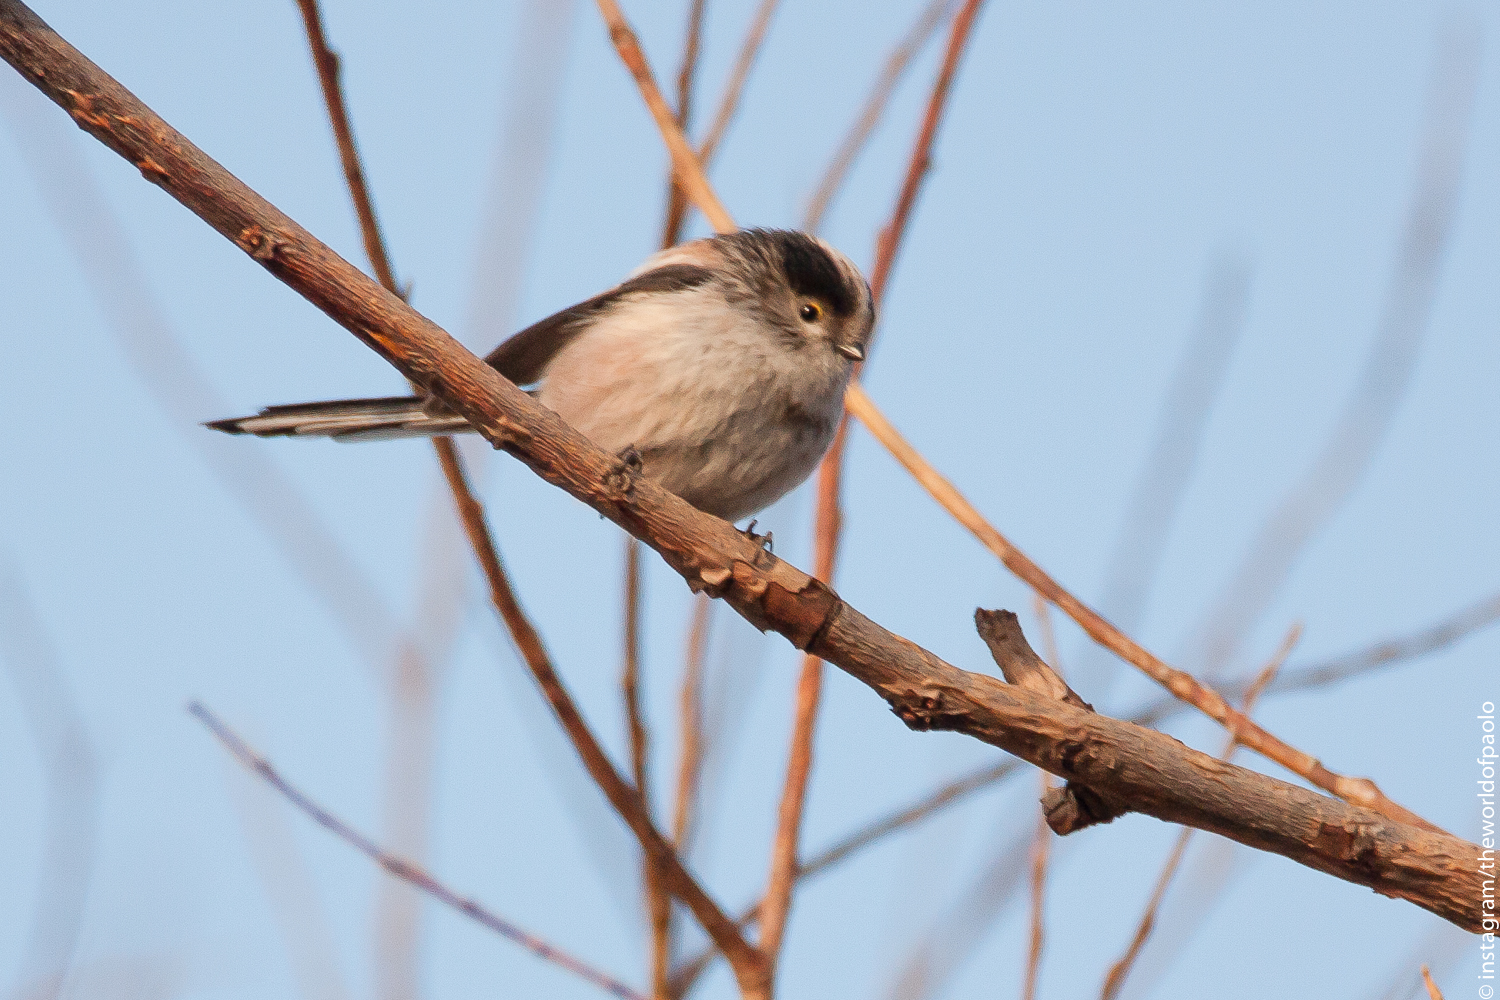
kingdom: Animalia
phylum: Chordata
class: Aves
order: Passeriformes
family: Aegithalidae
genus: Aegithalos
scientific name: Aegithalos caudatus
